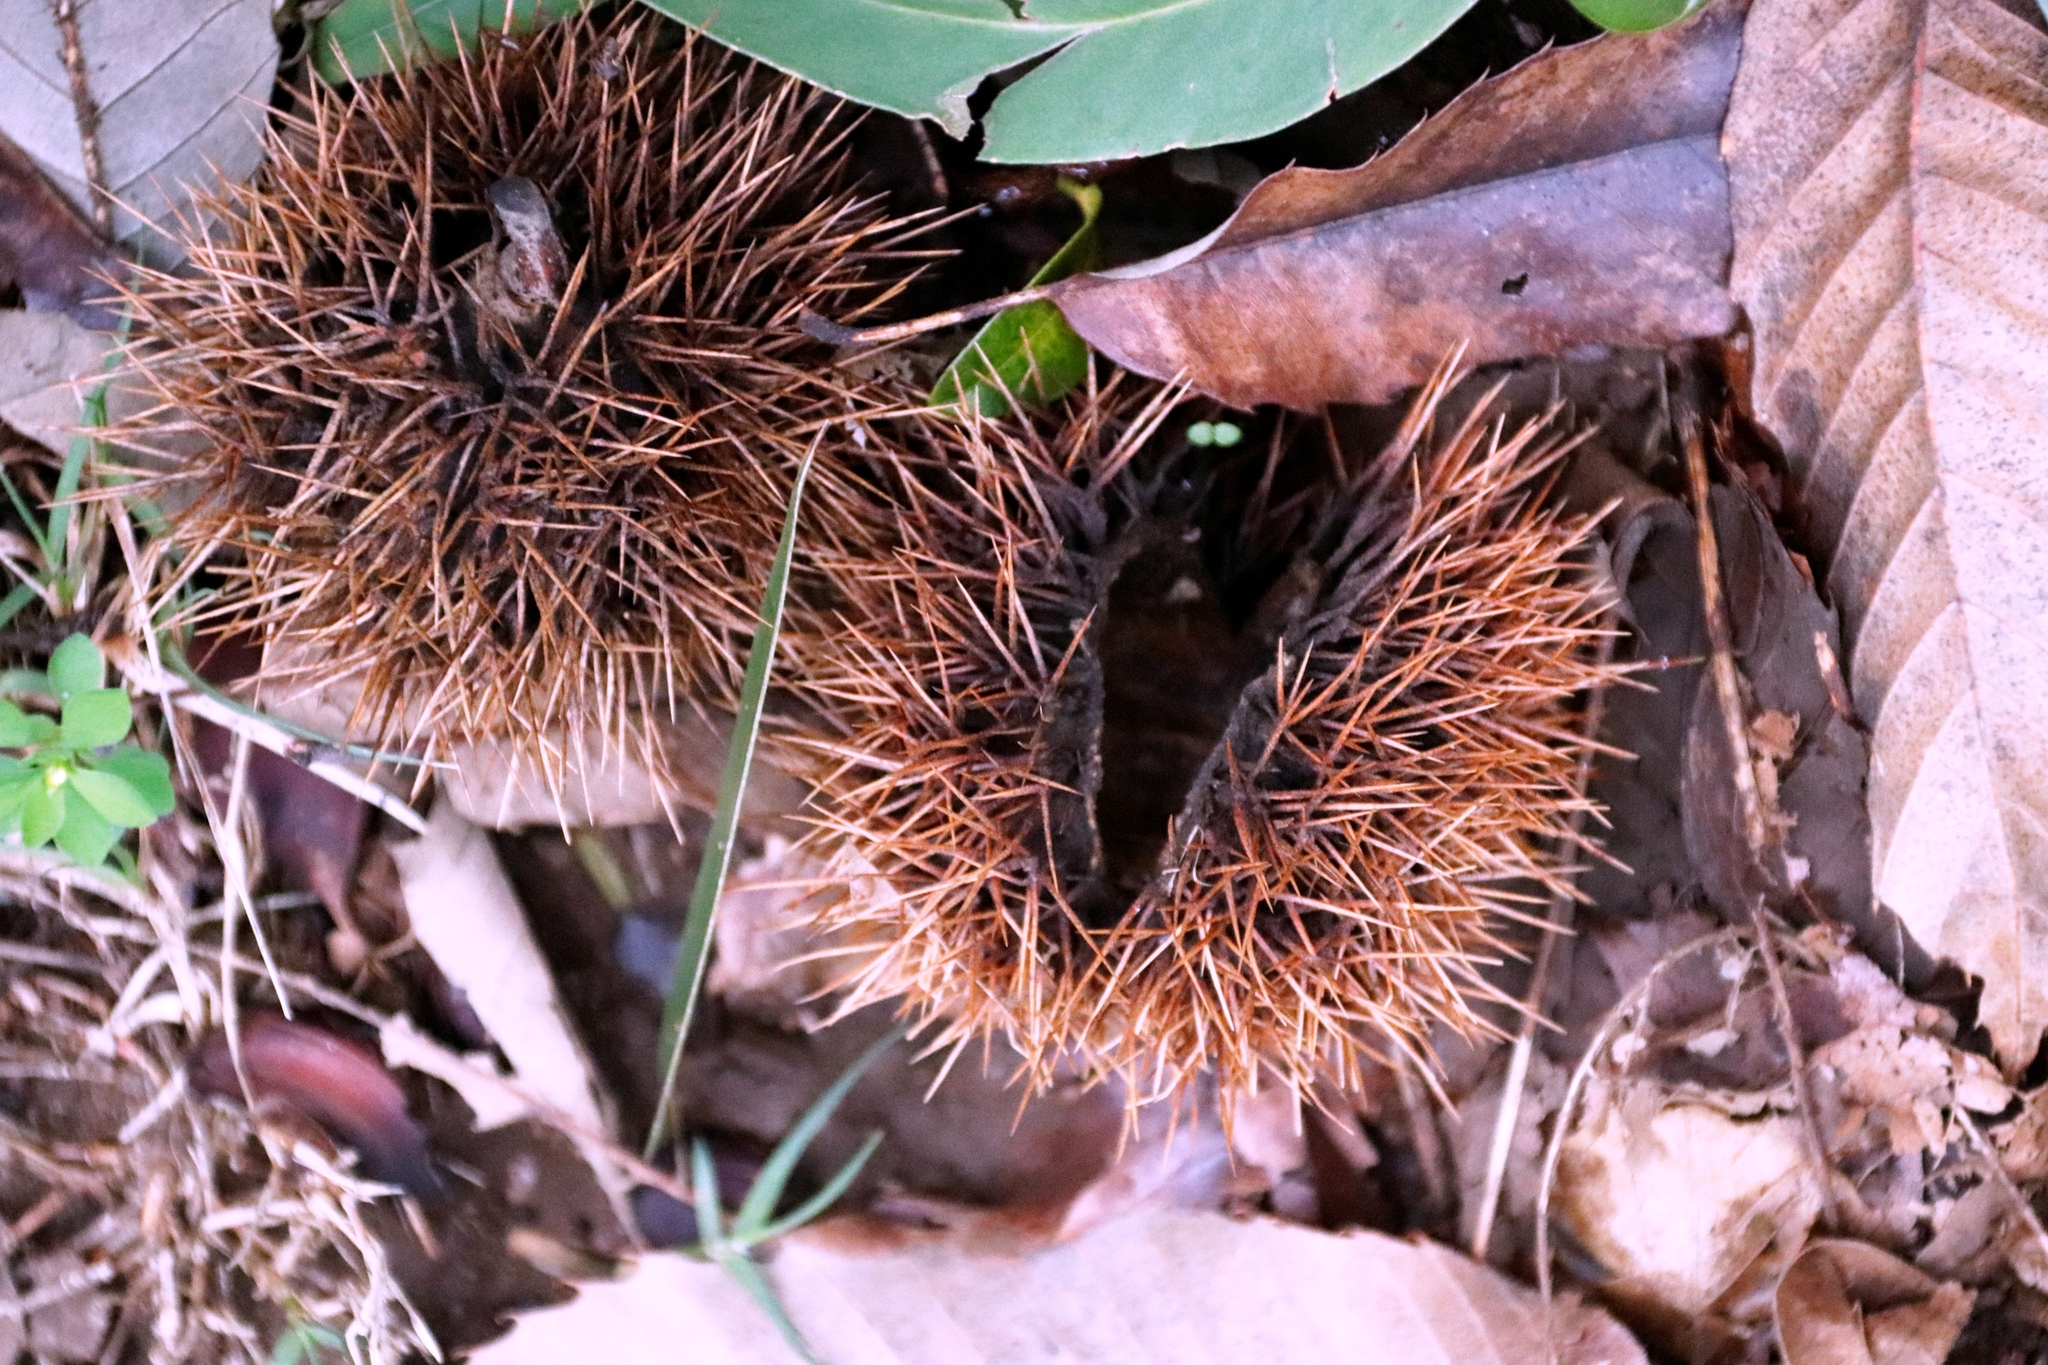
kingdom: Plantae
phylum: Tracheophyta
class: Magnoliopsida
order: Fagales
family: Fagaceae
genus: Castanea
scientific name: Castanea sativa
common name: Sweet chestnut
